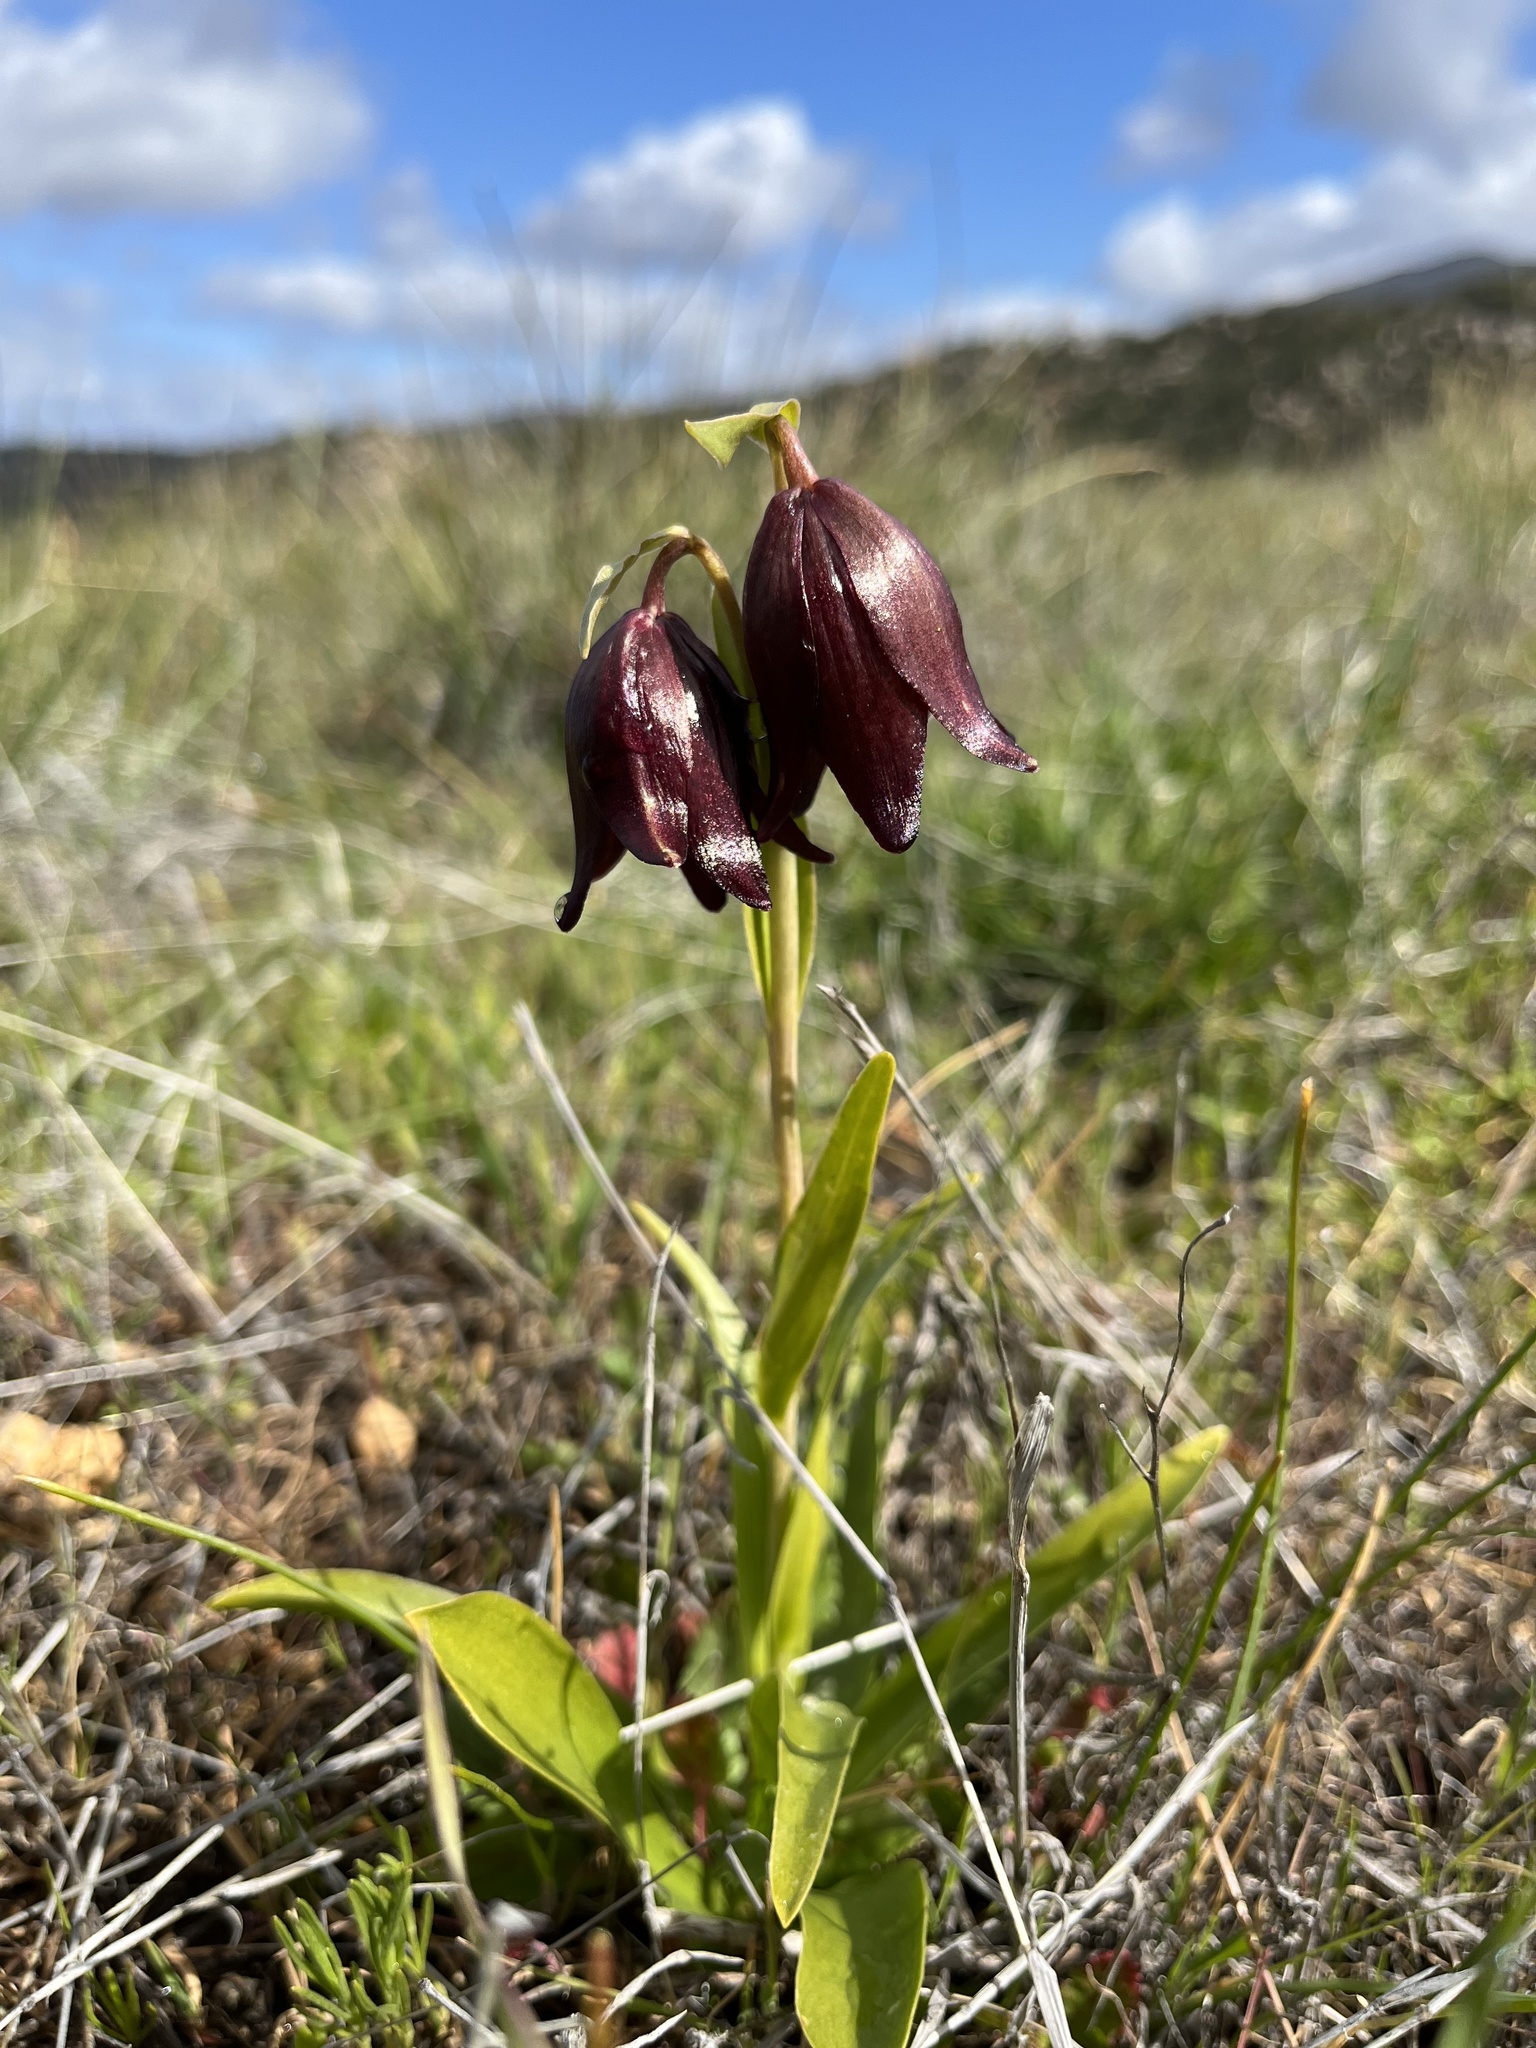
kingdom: Plantae
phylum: Tracheophyta
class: Liliopsida
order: Liliales
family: Liliaceae
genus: Fritillaria
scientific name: Fritillaria biflora
